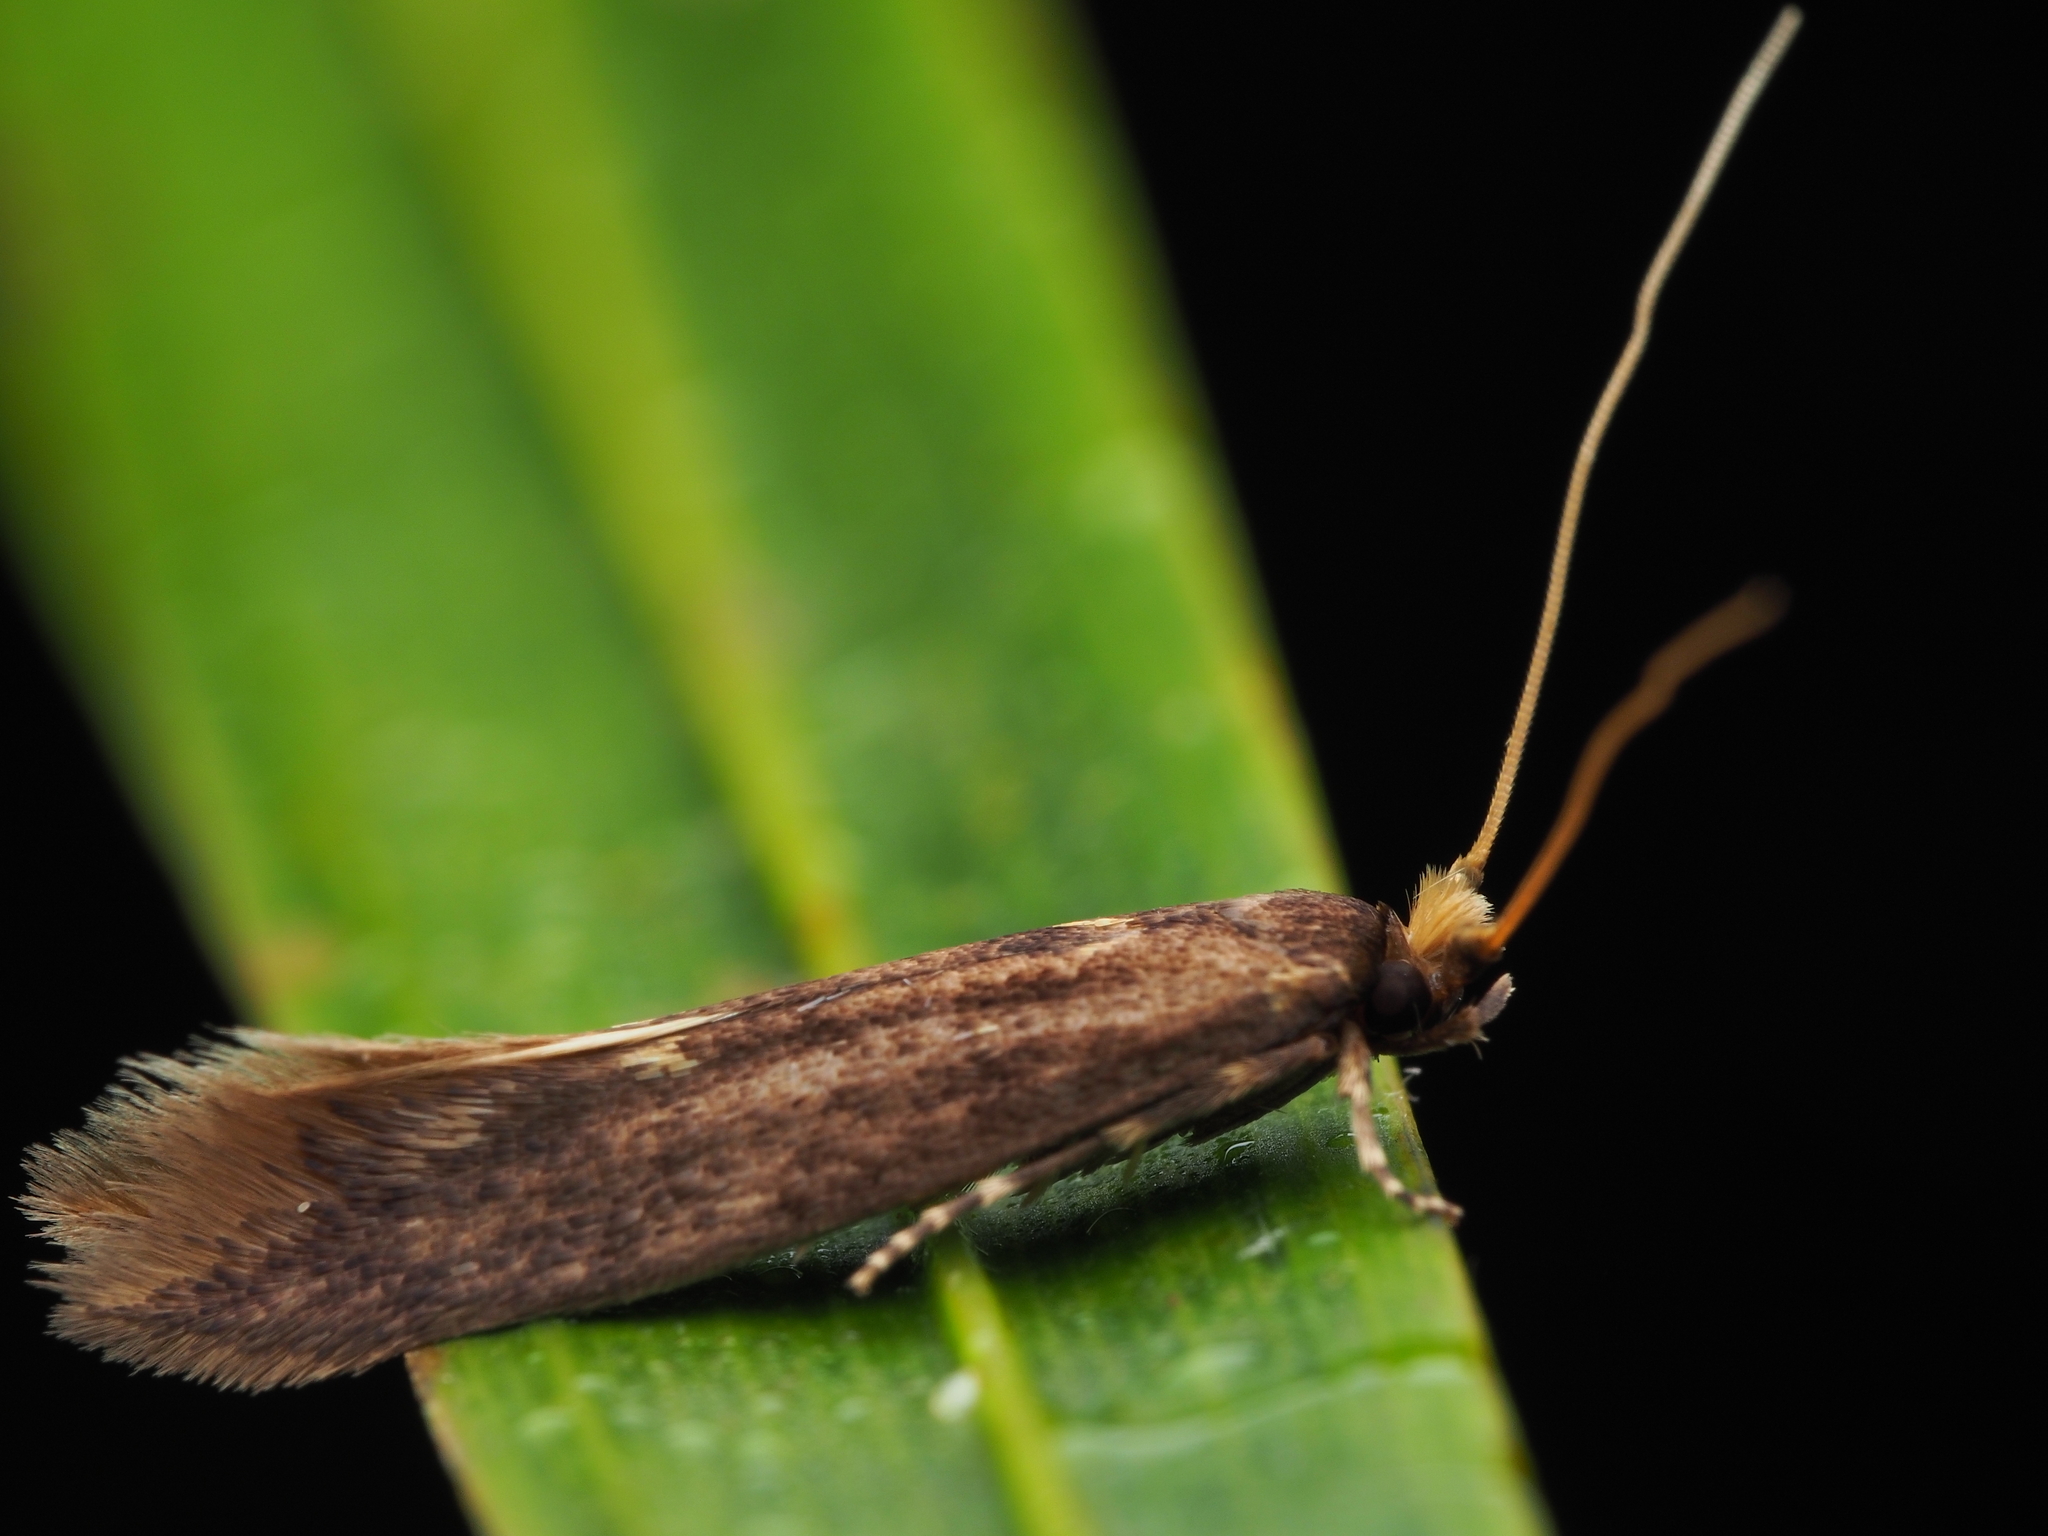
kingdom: Animalia
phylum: Arthropoda
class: Insecta
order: Lepidoptera
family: Tineidae
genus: Opogona
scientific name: Opogona omoscopa
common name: Moth
